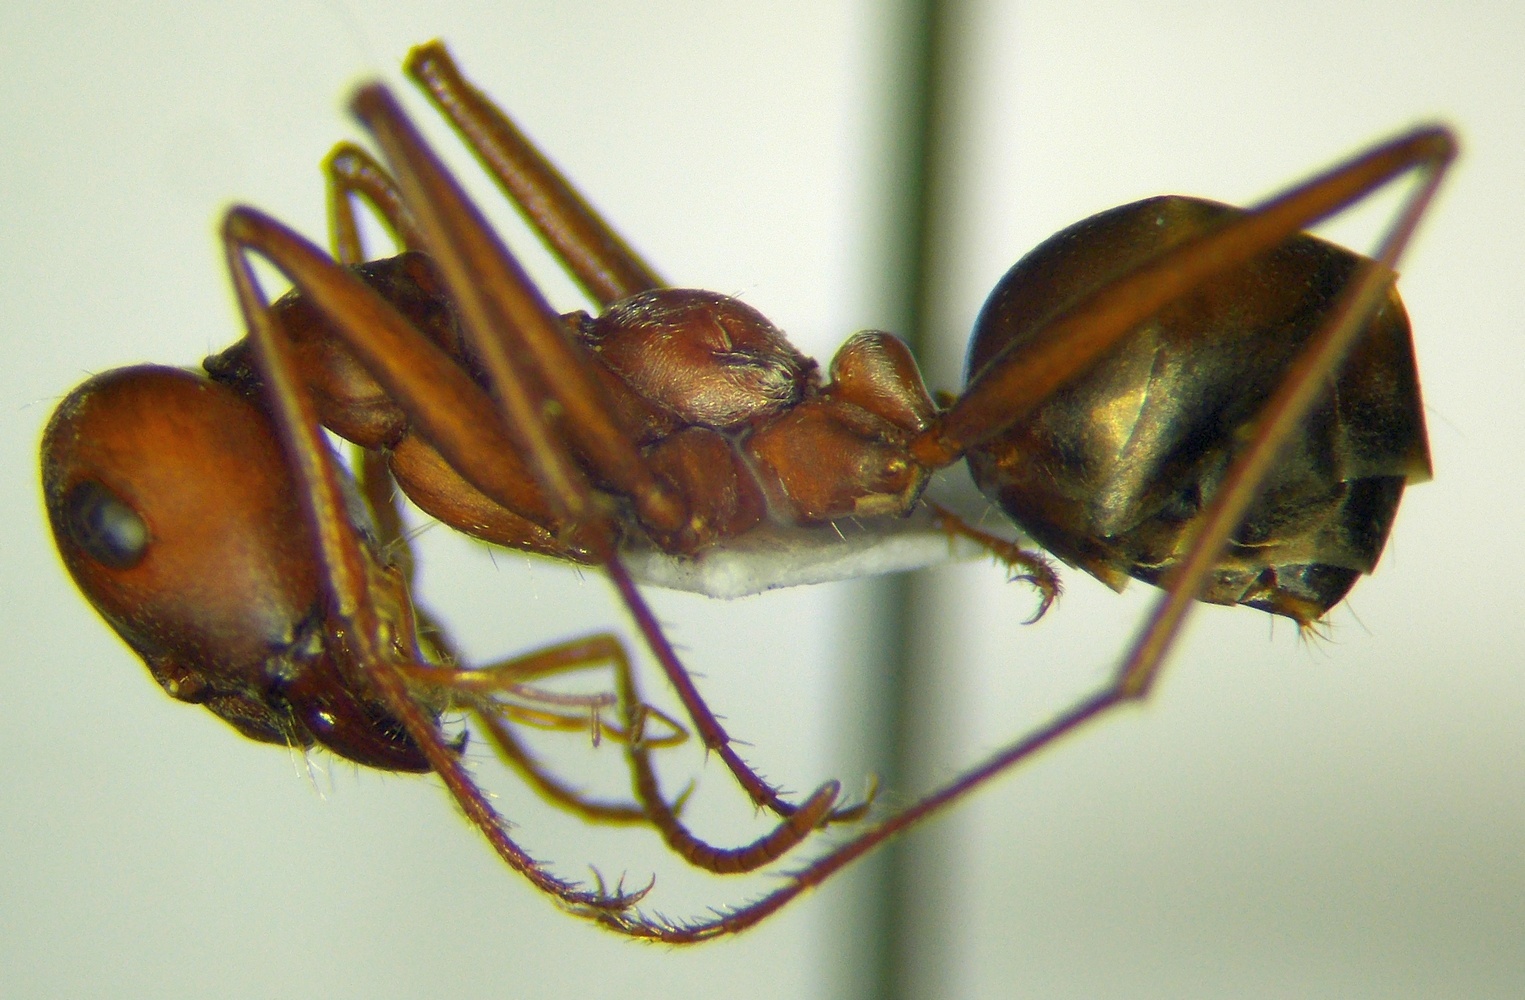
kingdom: Animalia
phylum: Arthropoda
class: Insecta
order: Hymenoptera
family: Formicidae
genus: Cataglyphis
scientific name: Cataglyphis aphrodite
